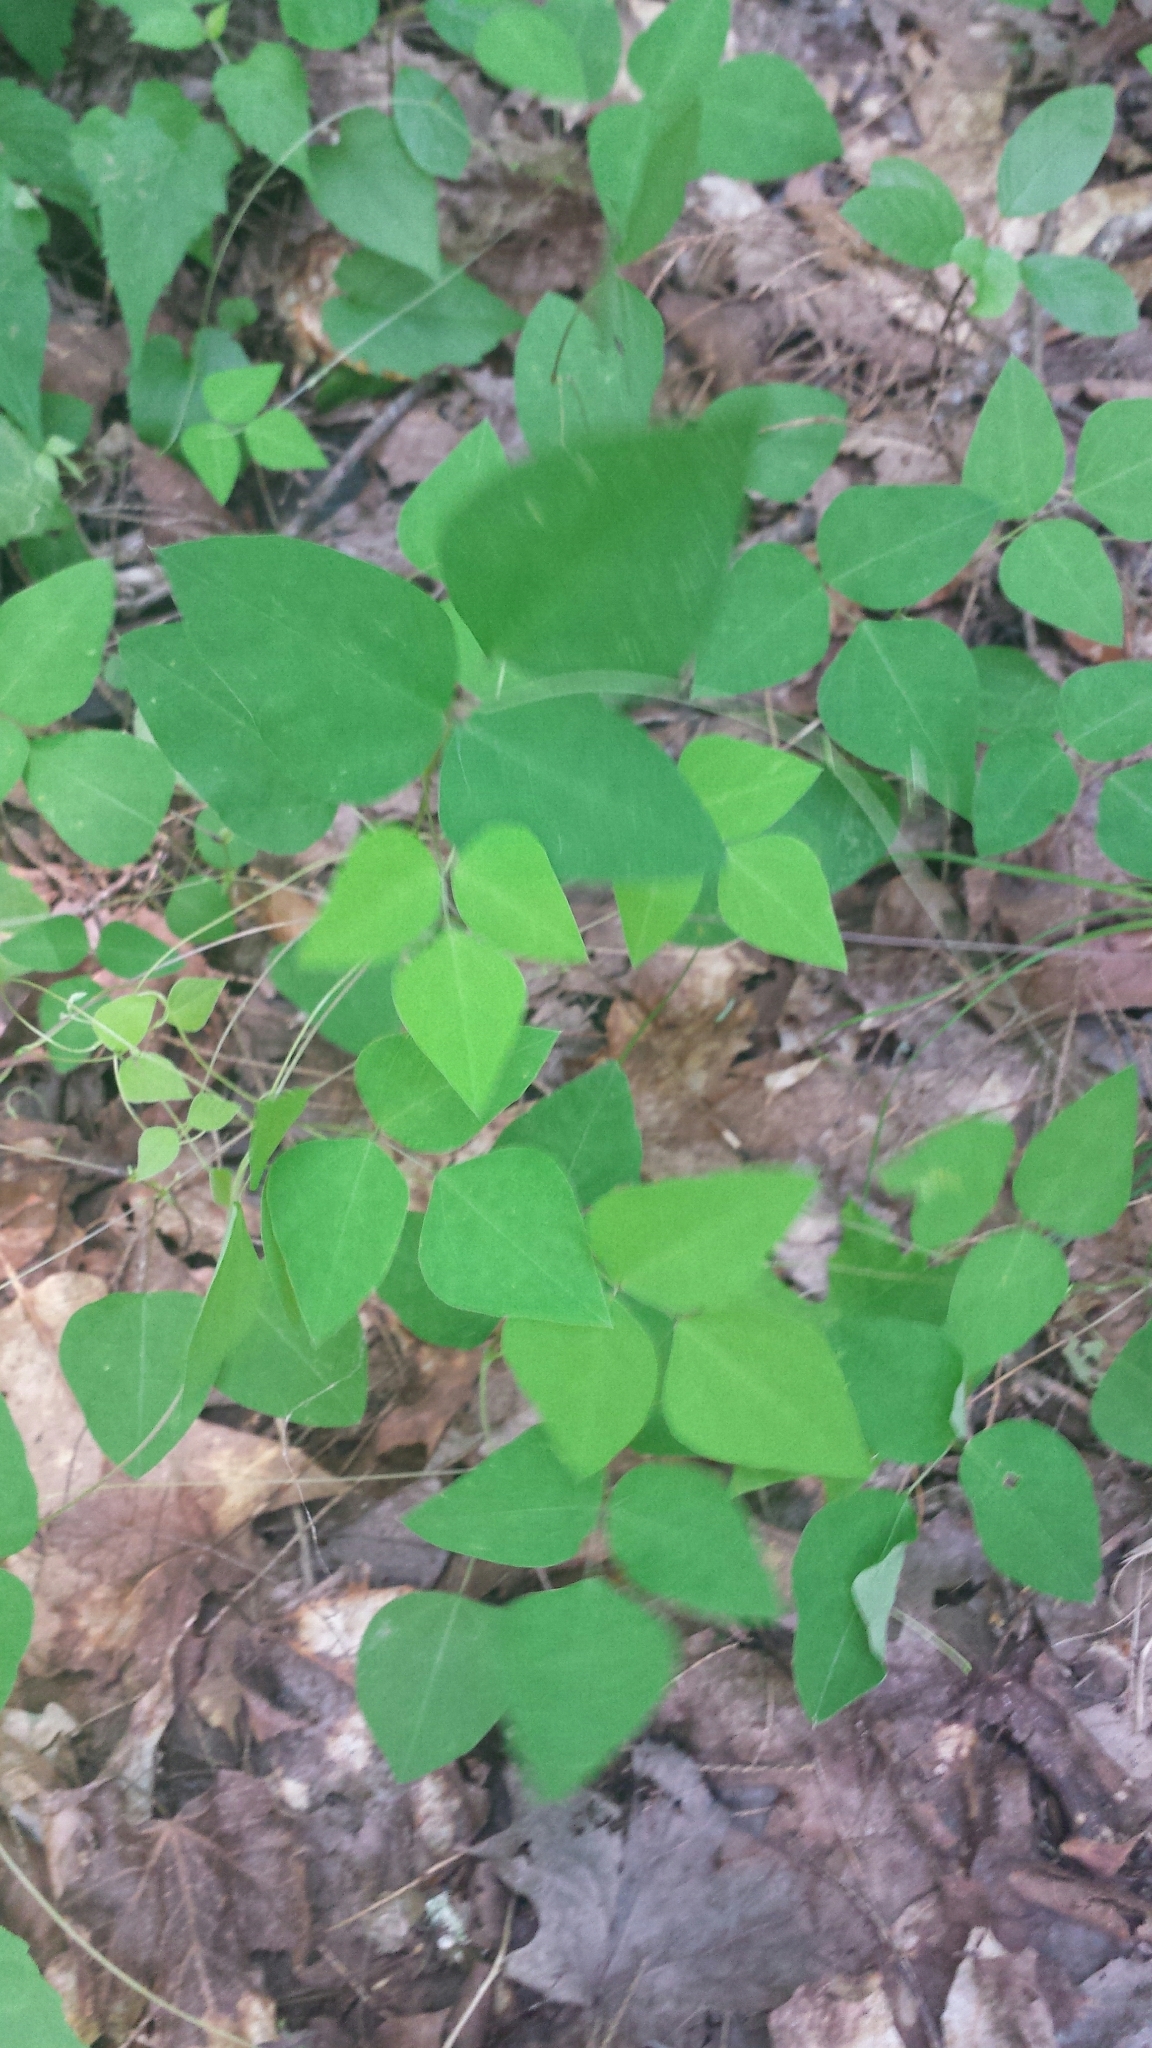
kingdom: Plantae
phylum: Tracheophyta
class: Magnoliopsida
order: Fabales
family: Fabaceae
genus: Amphicarpaea
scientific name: Amphicarpaea bracteata
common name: American hog peanut
